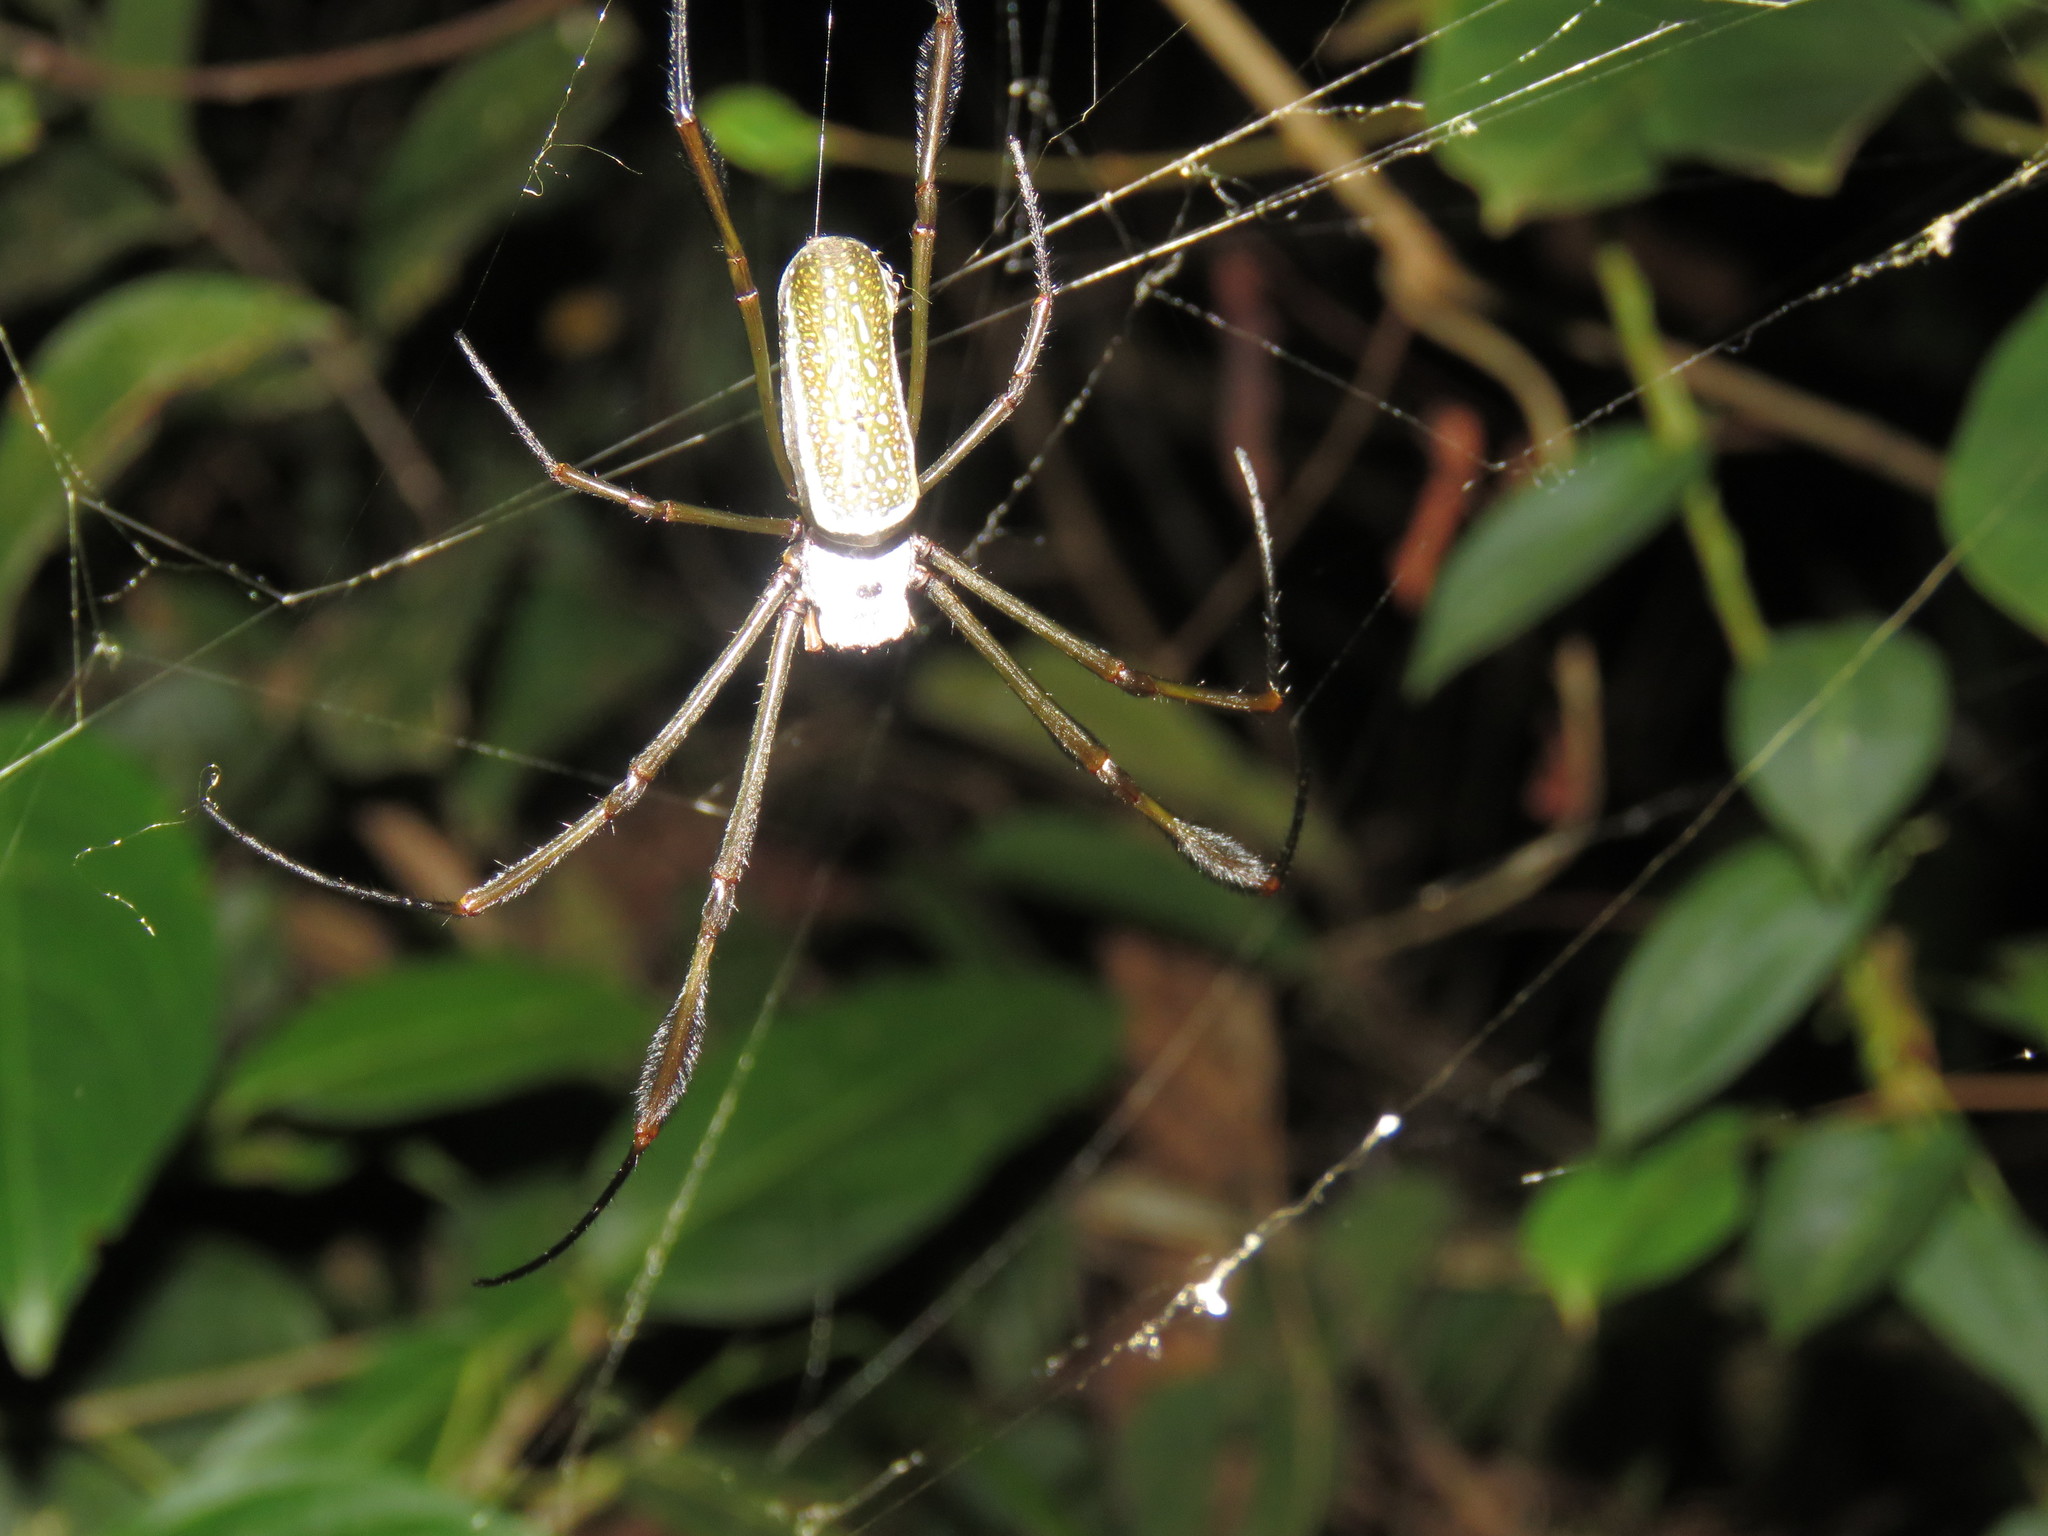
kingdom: Animalia
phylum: Arthropoda
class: Arachnida
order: Araneae
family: Araneidae
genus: Trichonephila
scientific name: Trichonephila clavipes
